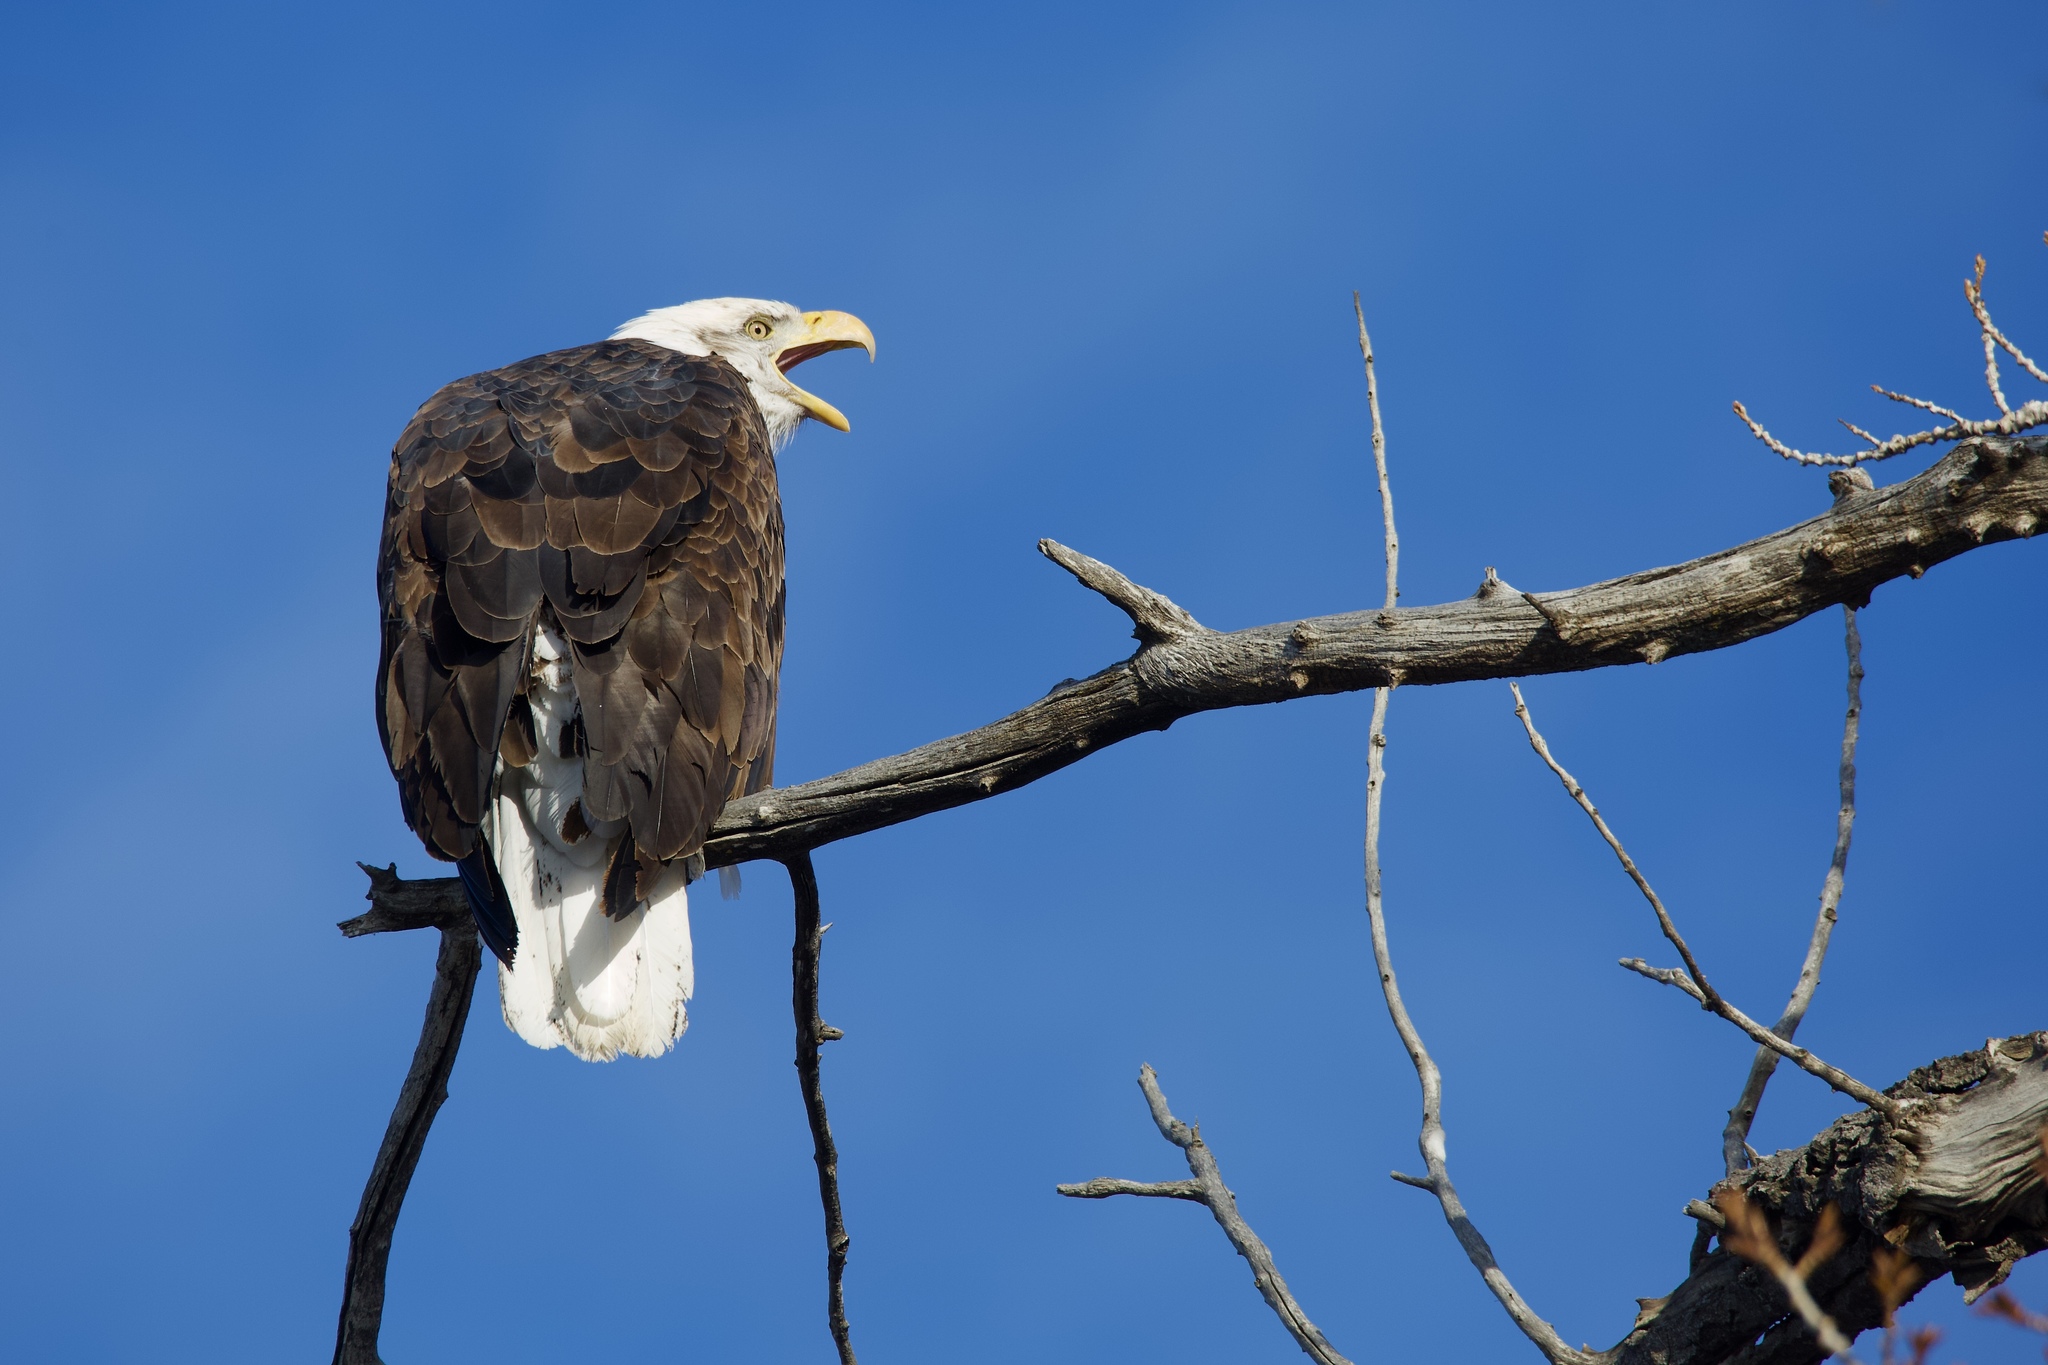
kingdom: Animalia
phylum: Chordata
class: Aves
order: Accipitriformes
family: Accipitridae
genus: Haliaeetus
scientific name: Haliaeetus leucocephalus
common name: Bald eagle
